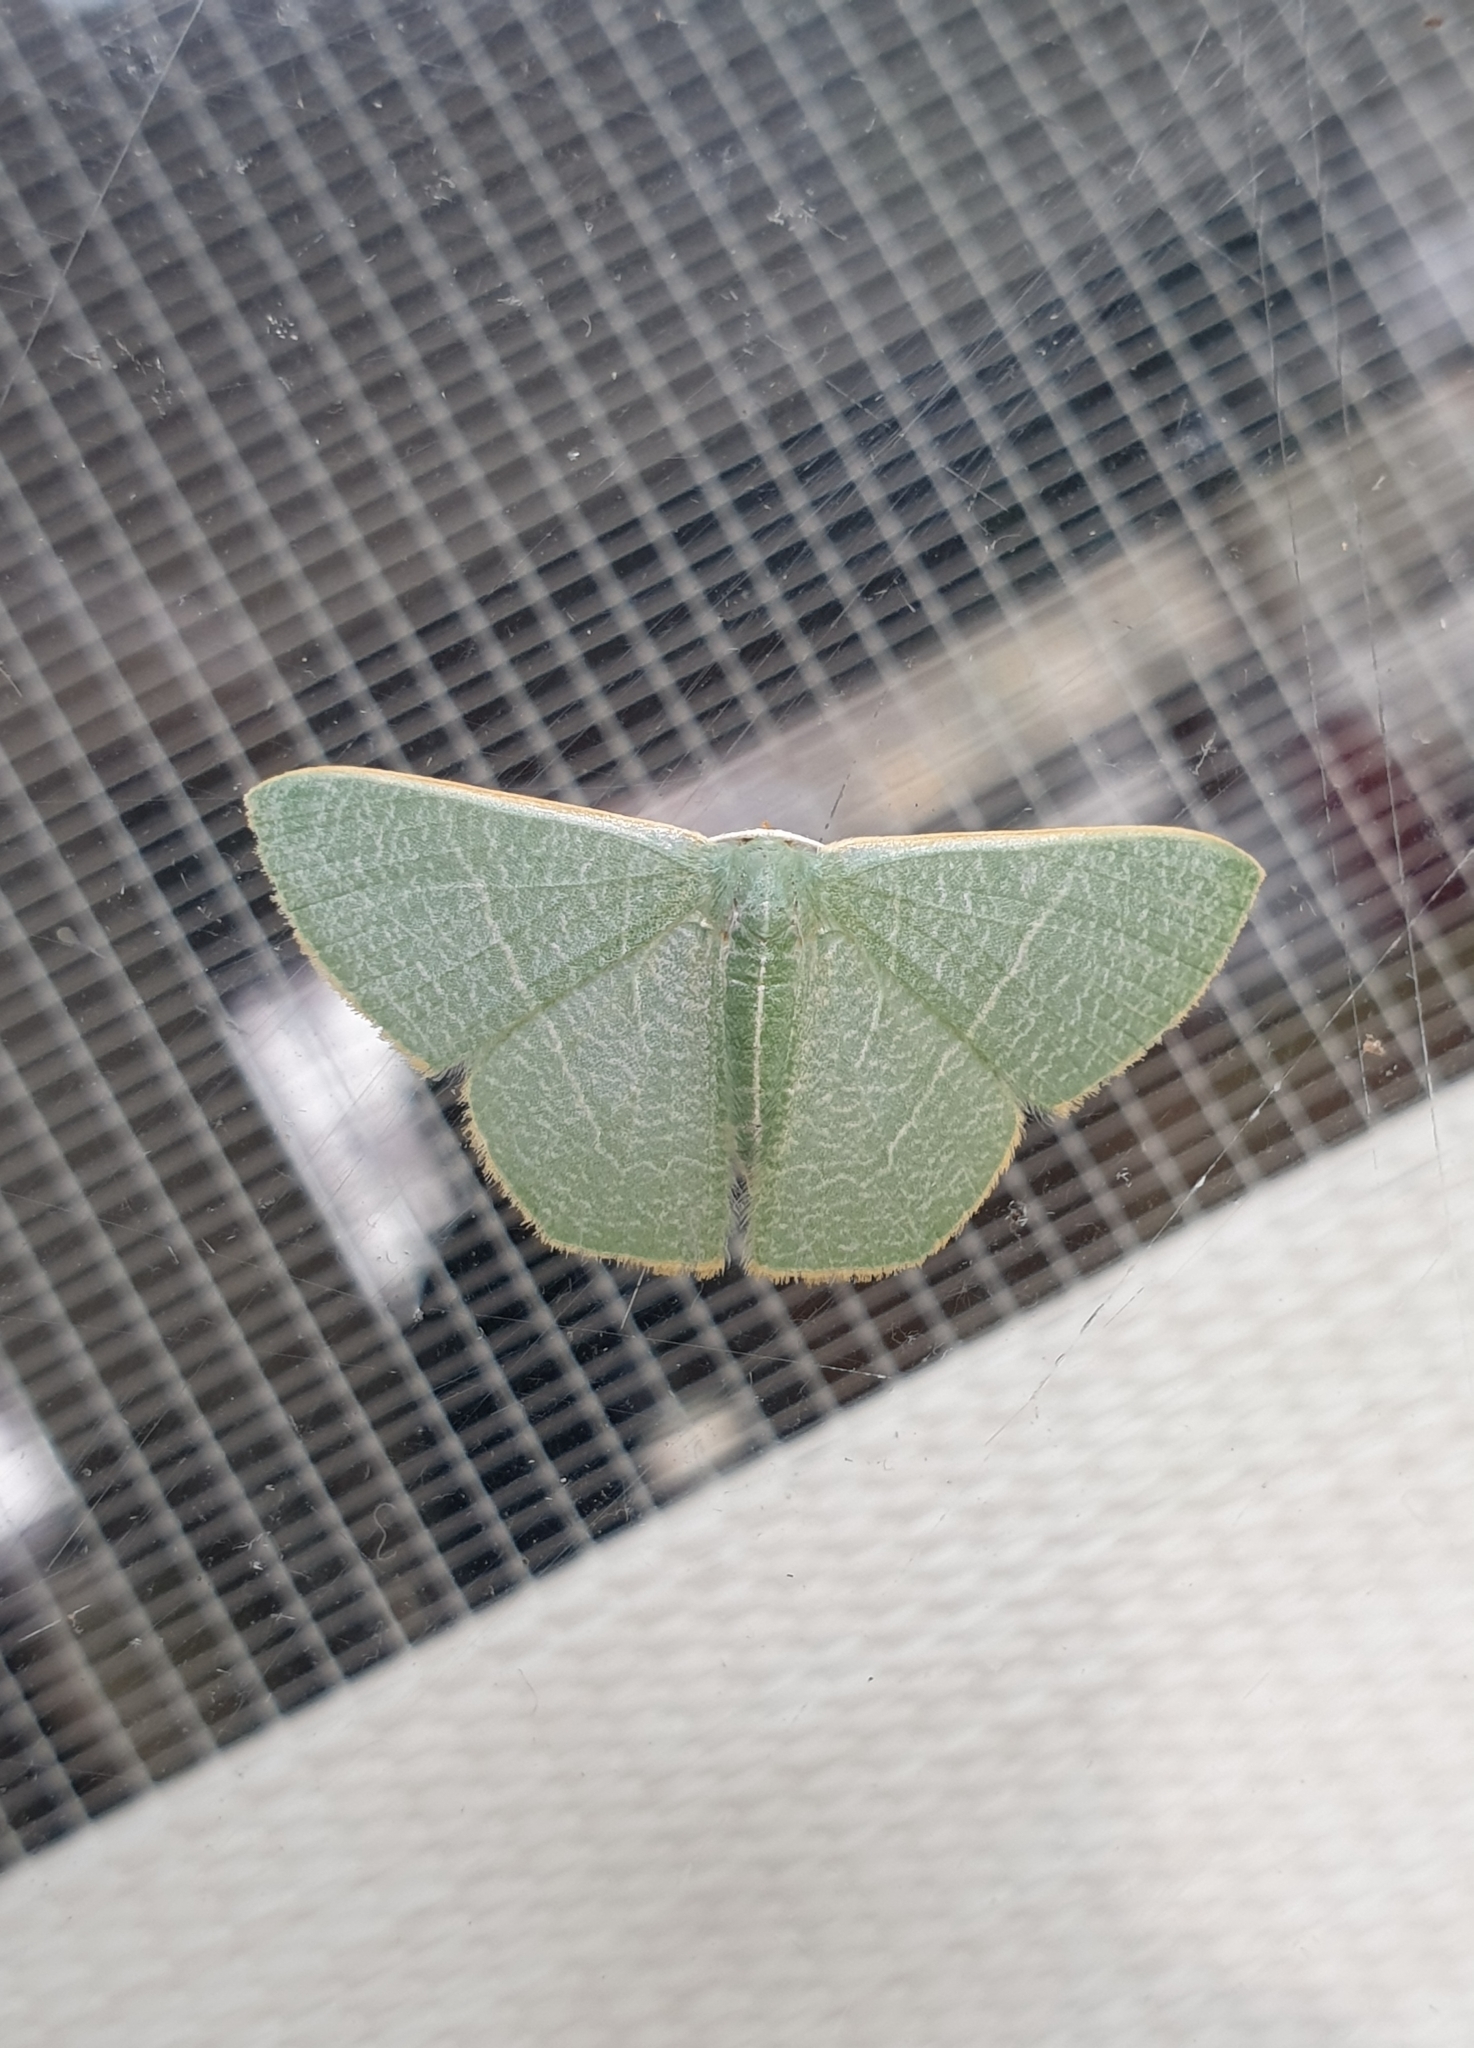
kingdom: Animalia
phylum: Arthropoda
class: Insecta
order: Lepidoptera
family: Geometridae
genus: Pelagodes
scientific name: Pelagodes antiquadraria
